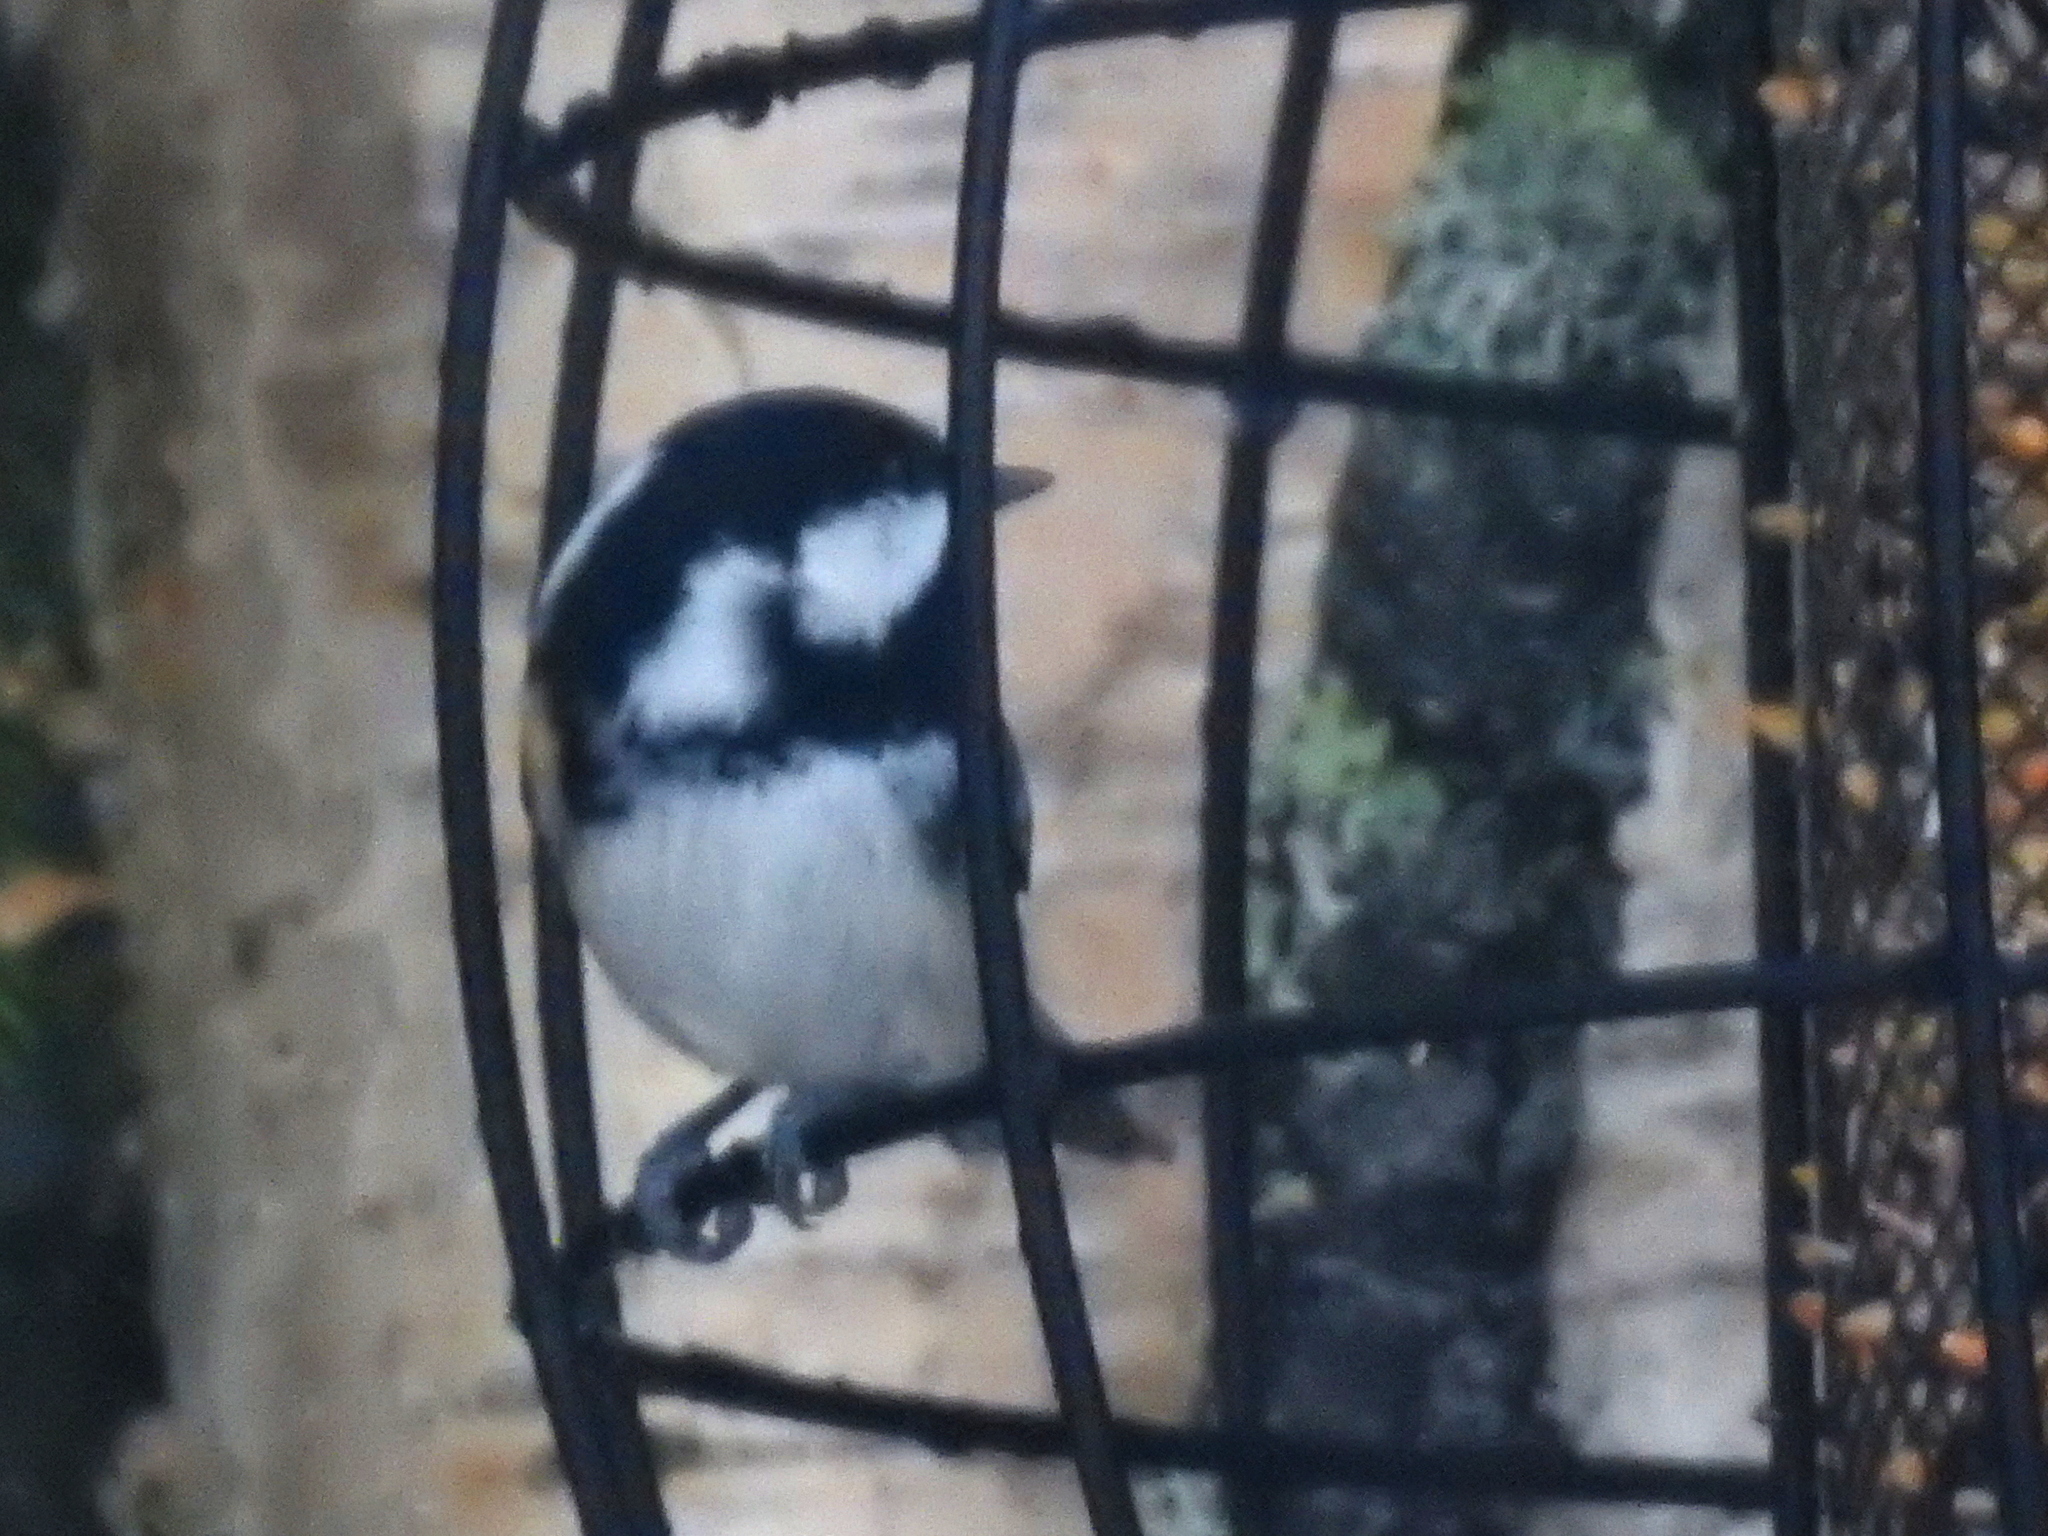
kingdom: Animalia
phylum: Chordata
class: Aves
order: Passeriformes
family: Paridae
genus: Periparus
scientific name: Periparus ater
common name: Coal tit
